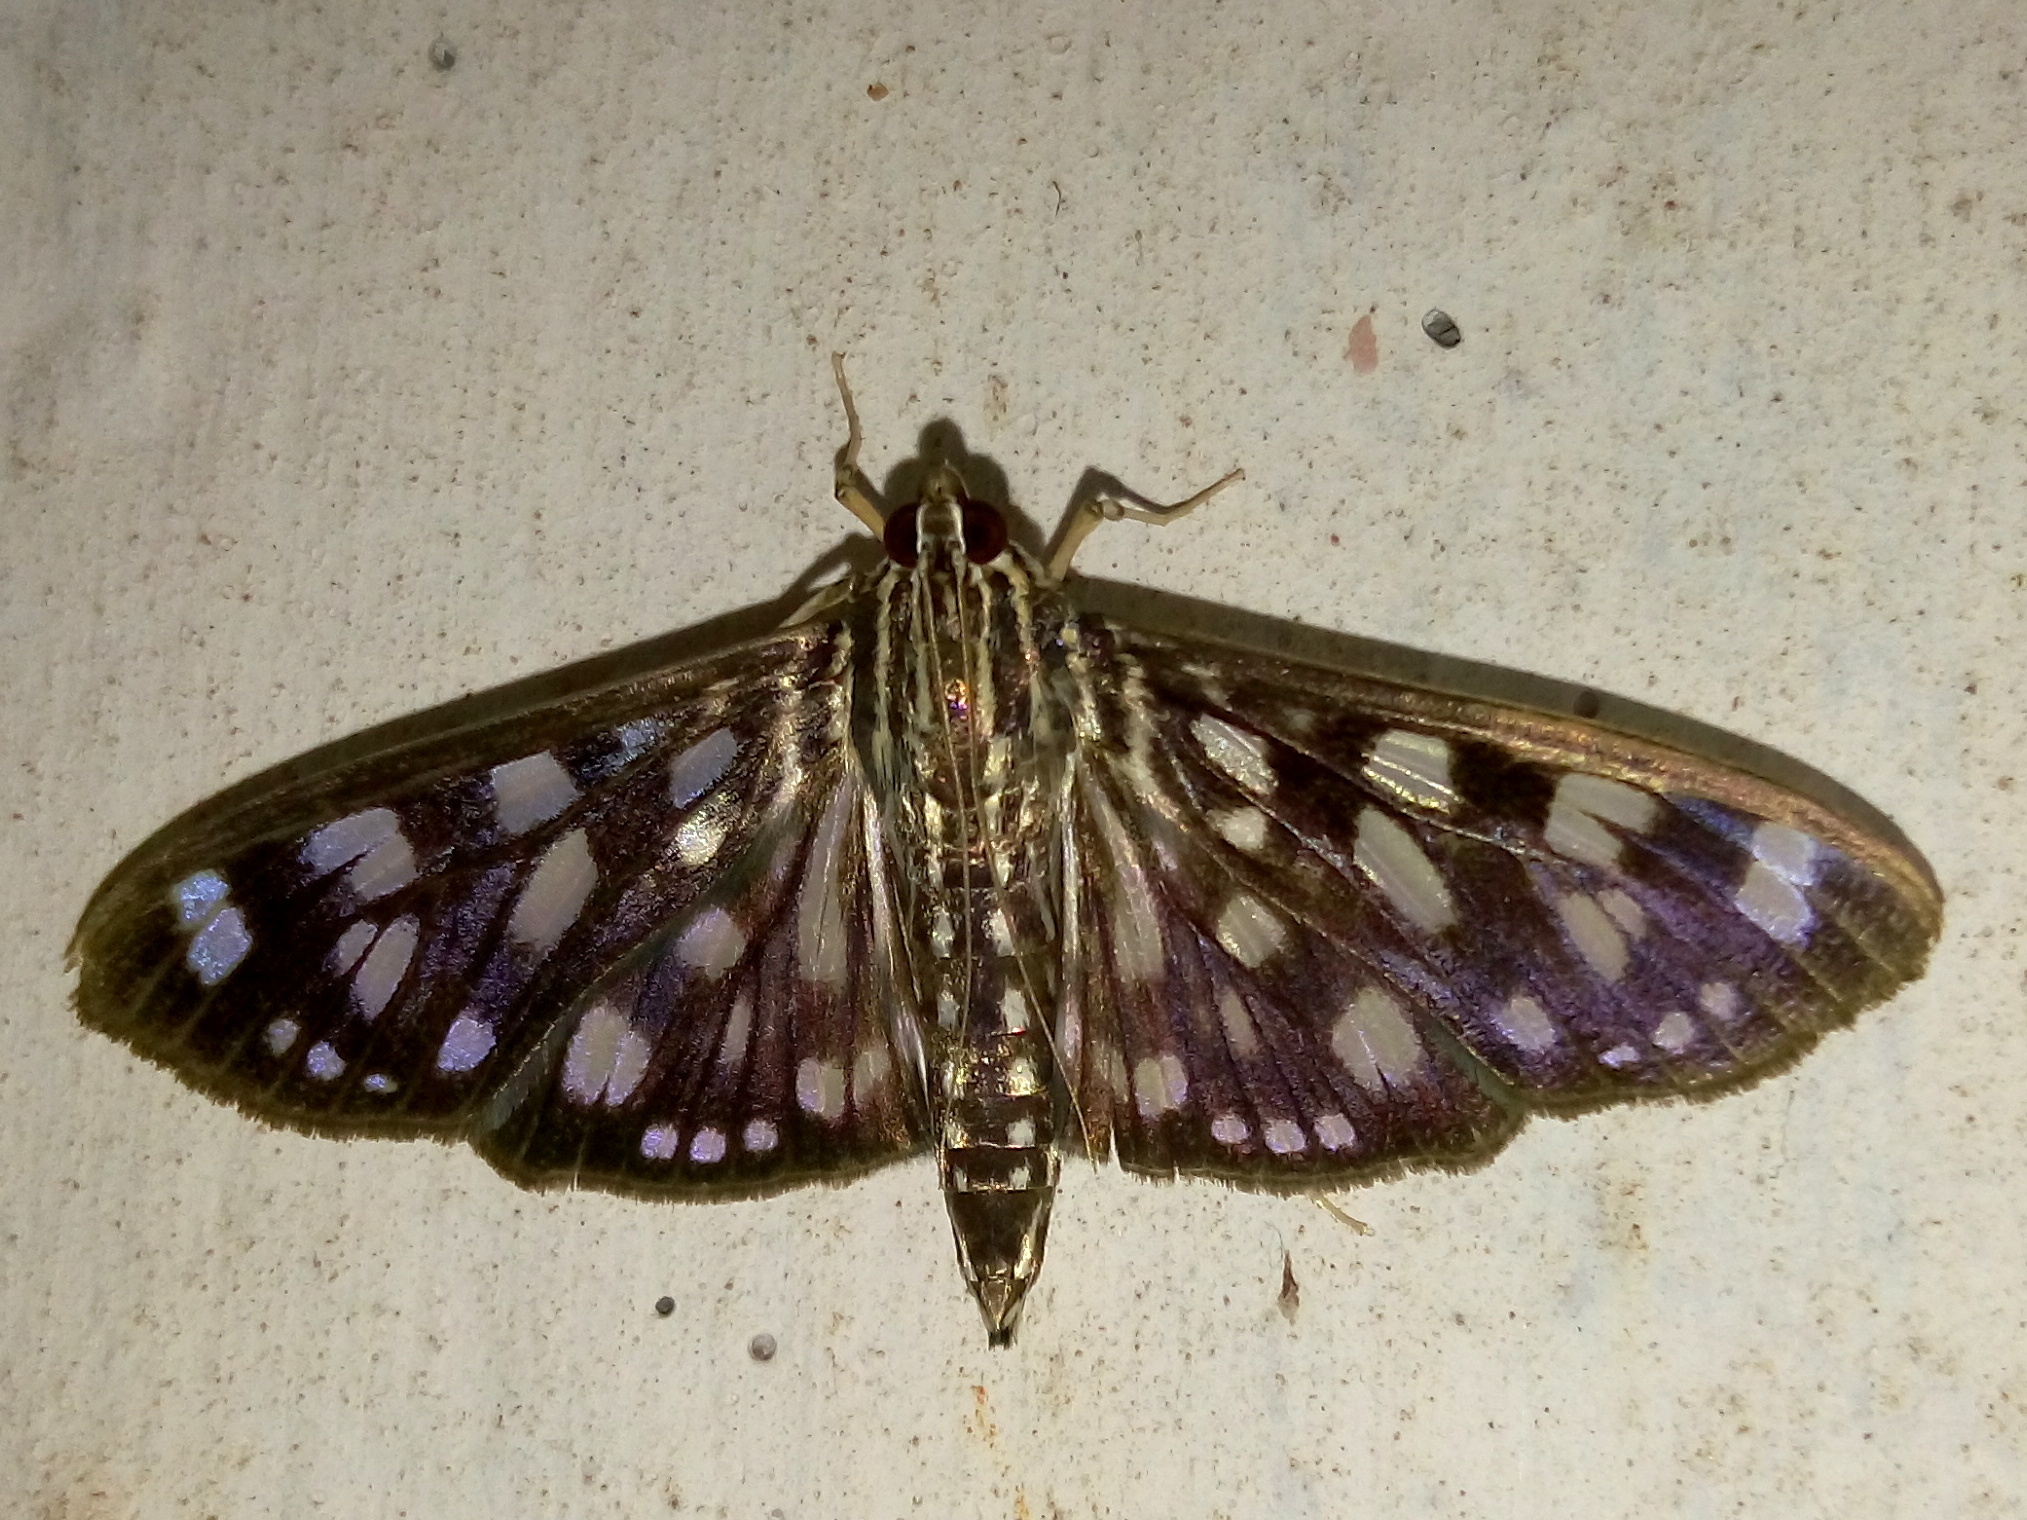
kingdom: Animalia
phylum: Arthropoda
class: Insecta
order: Lepidoptera
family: Crambidae
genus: Pygospila
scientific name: Pygospila tyres
